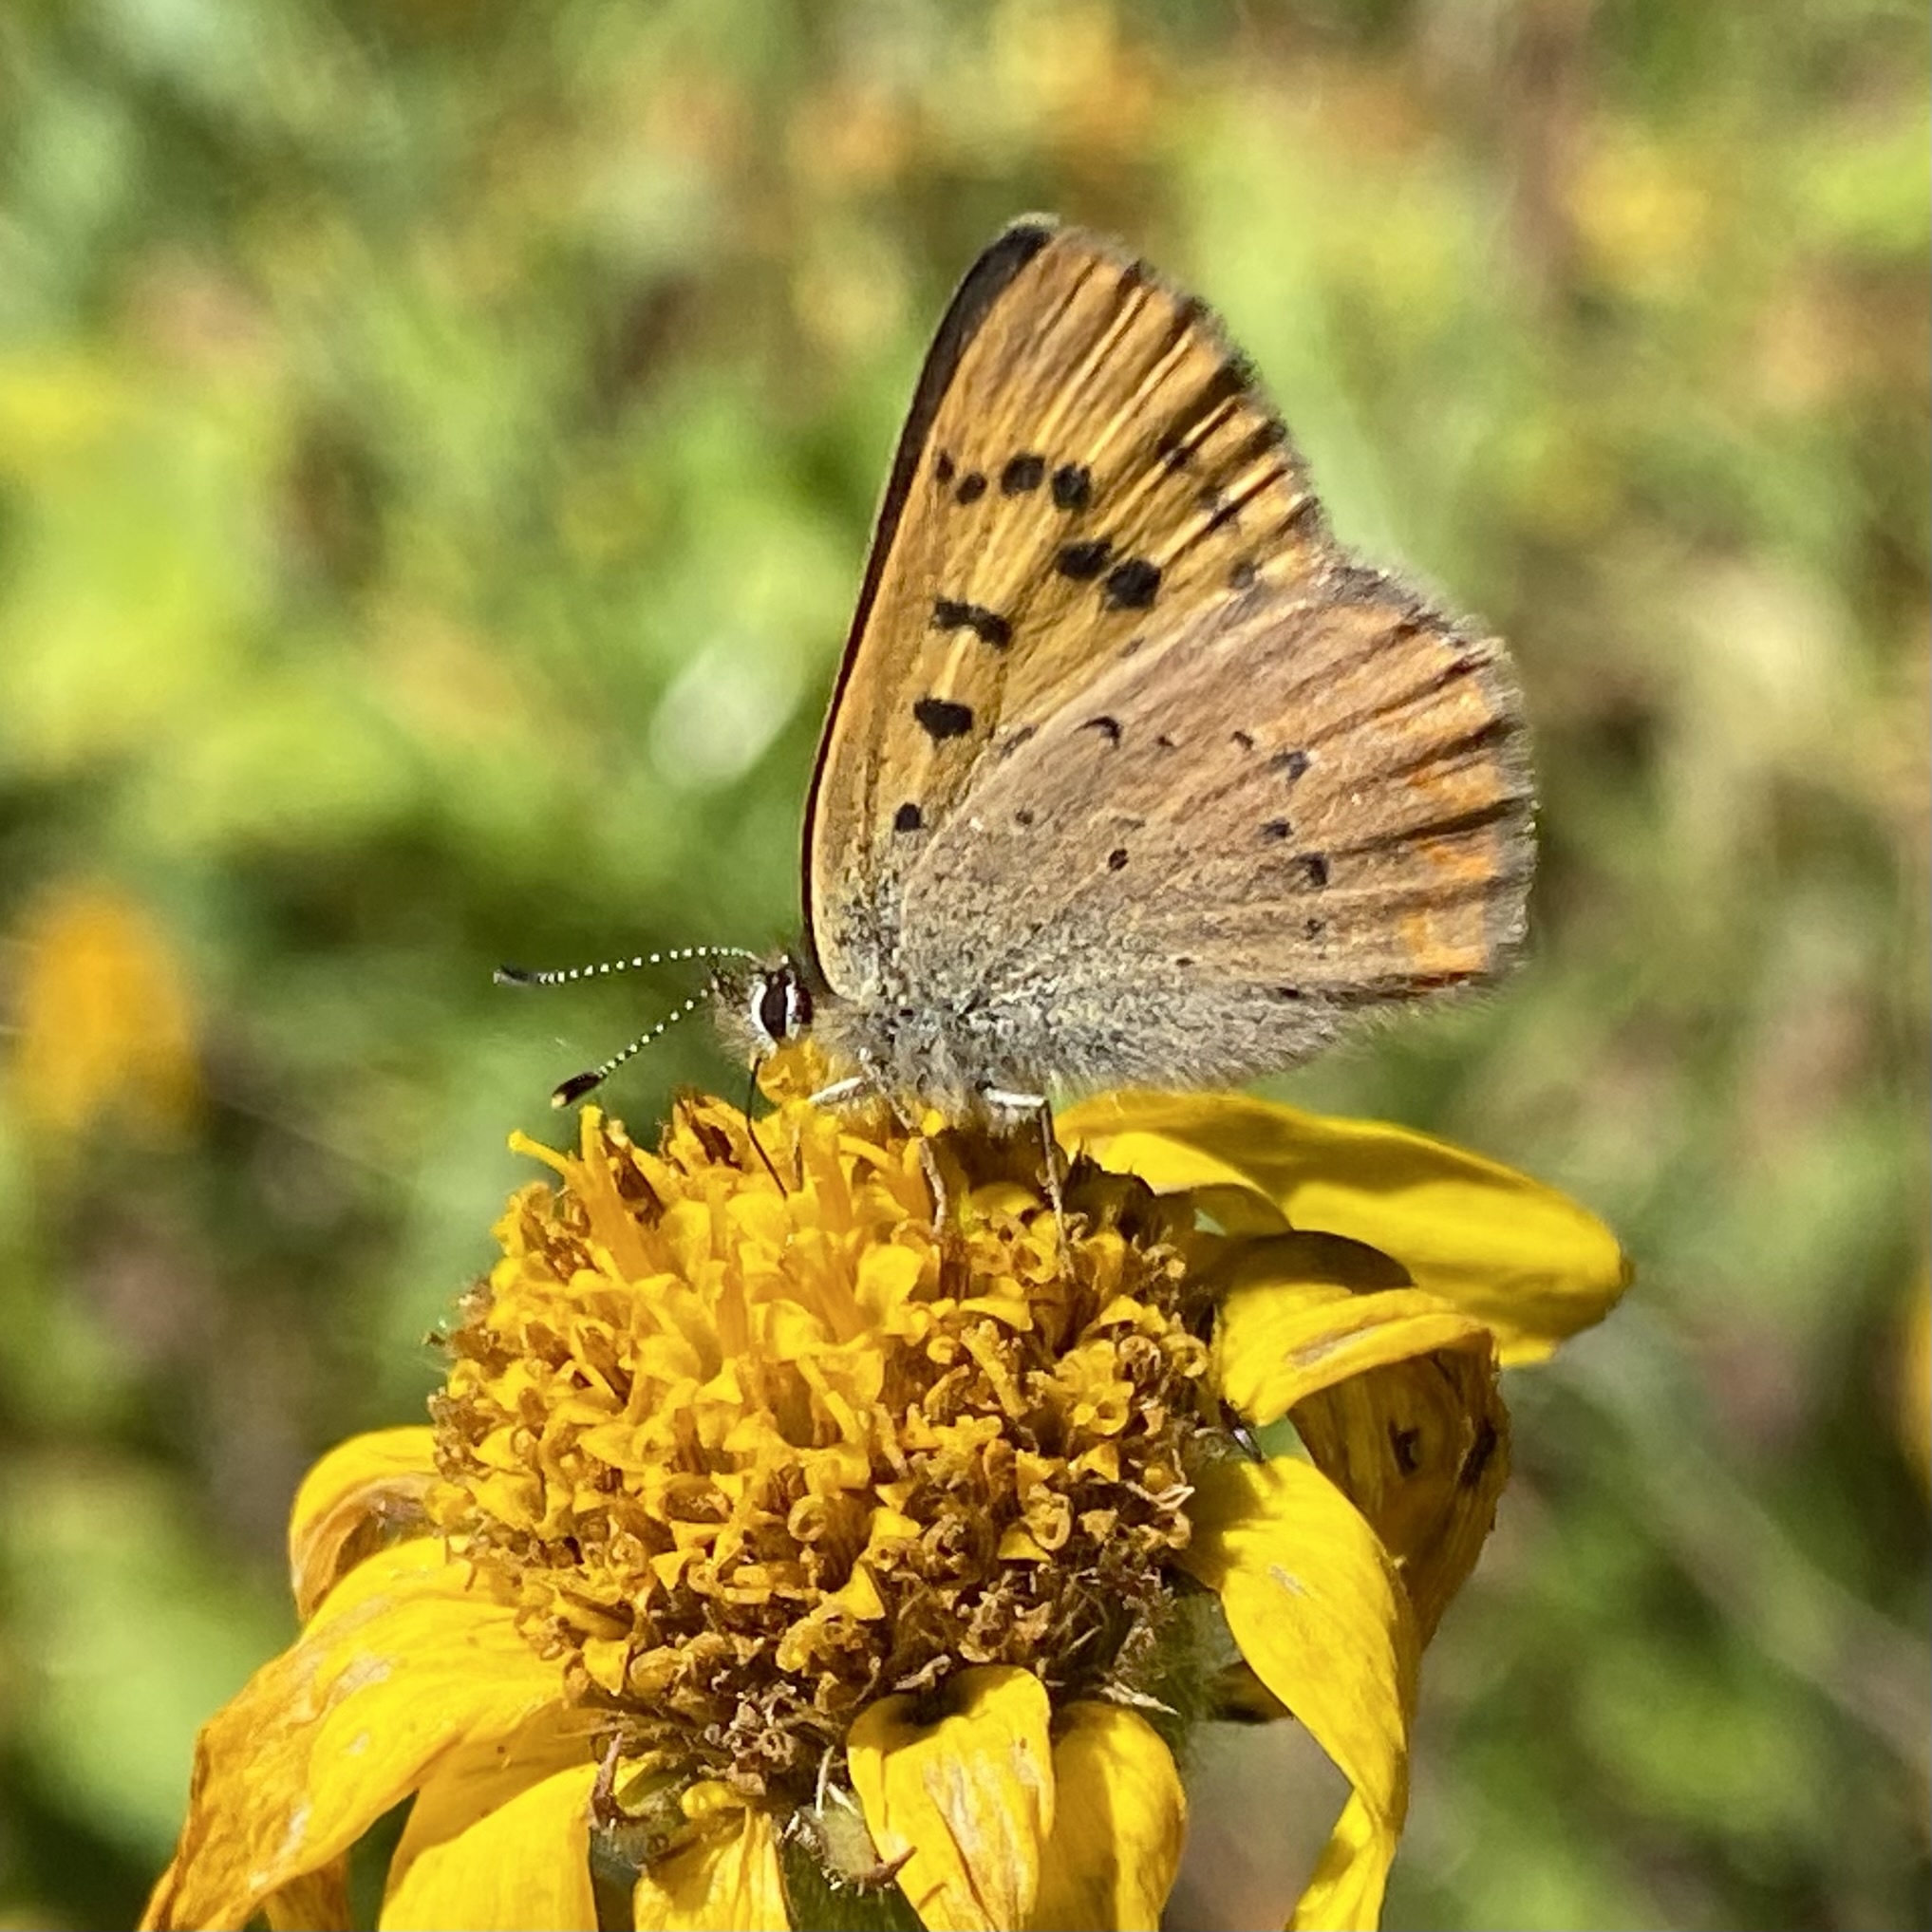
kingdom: Animalia
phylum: Arthropoda
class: Insecta
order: Lepidoptera
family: Lycaenidae
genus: Tharsalea
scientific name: Tharsalea dorcas
